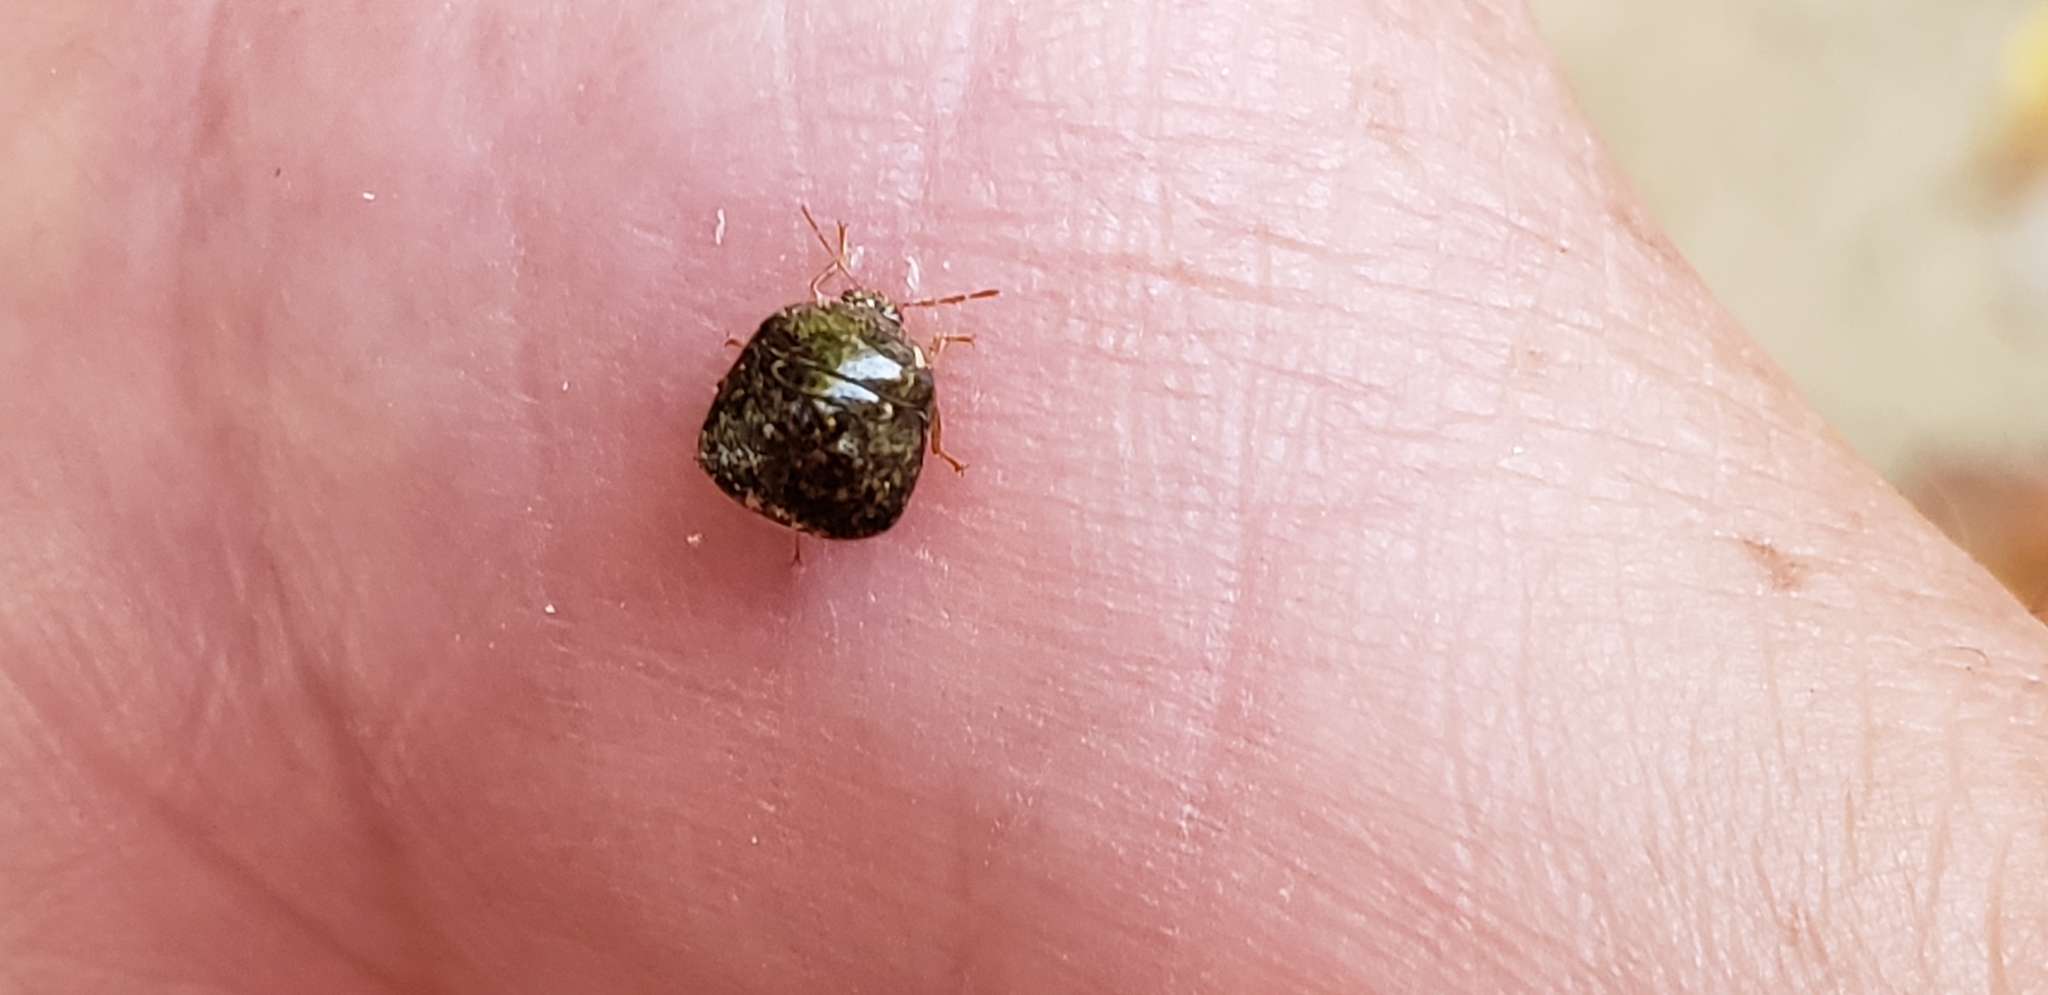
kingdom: Animalia
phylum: Arthropoda
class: Insecta
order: Hemiptera
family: Plataspidae
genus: Megacopta
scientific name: Megacopta cribraria
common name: Bean plataspid
